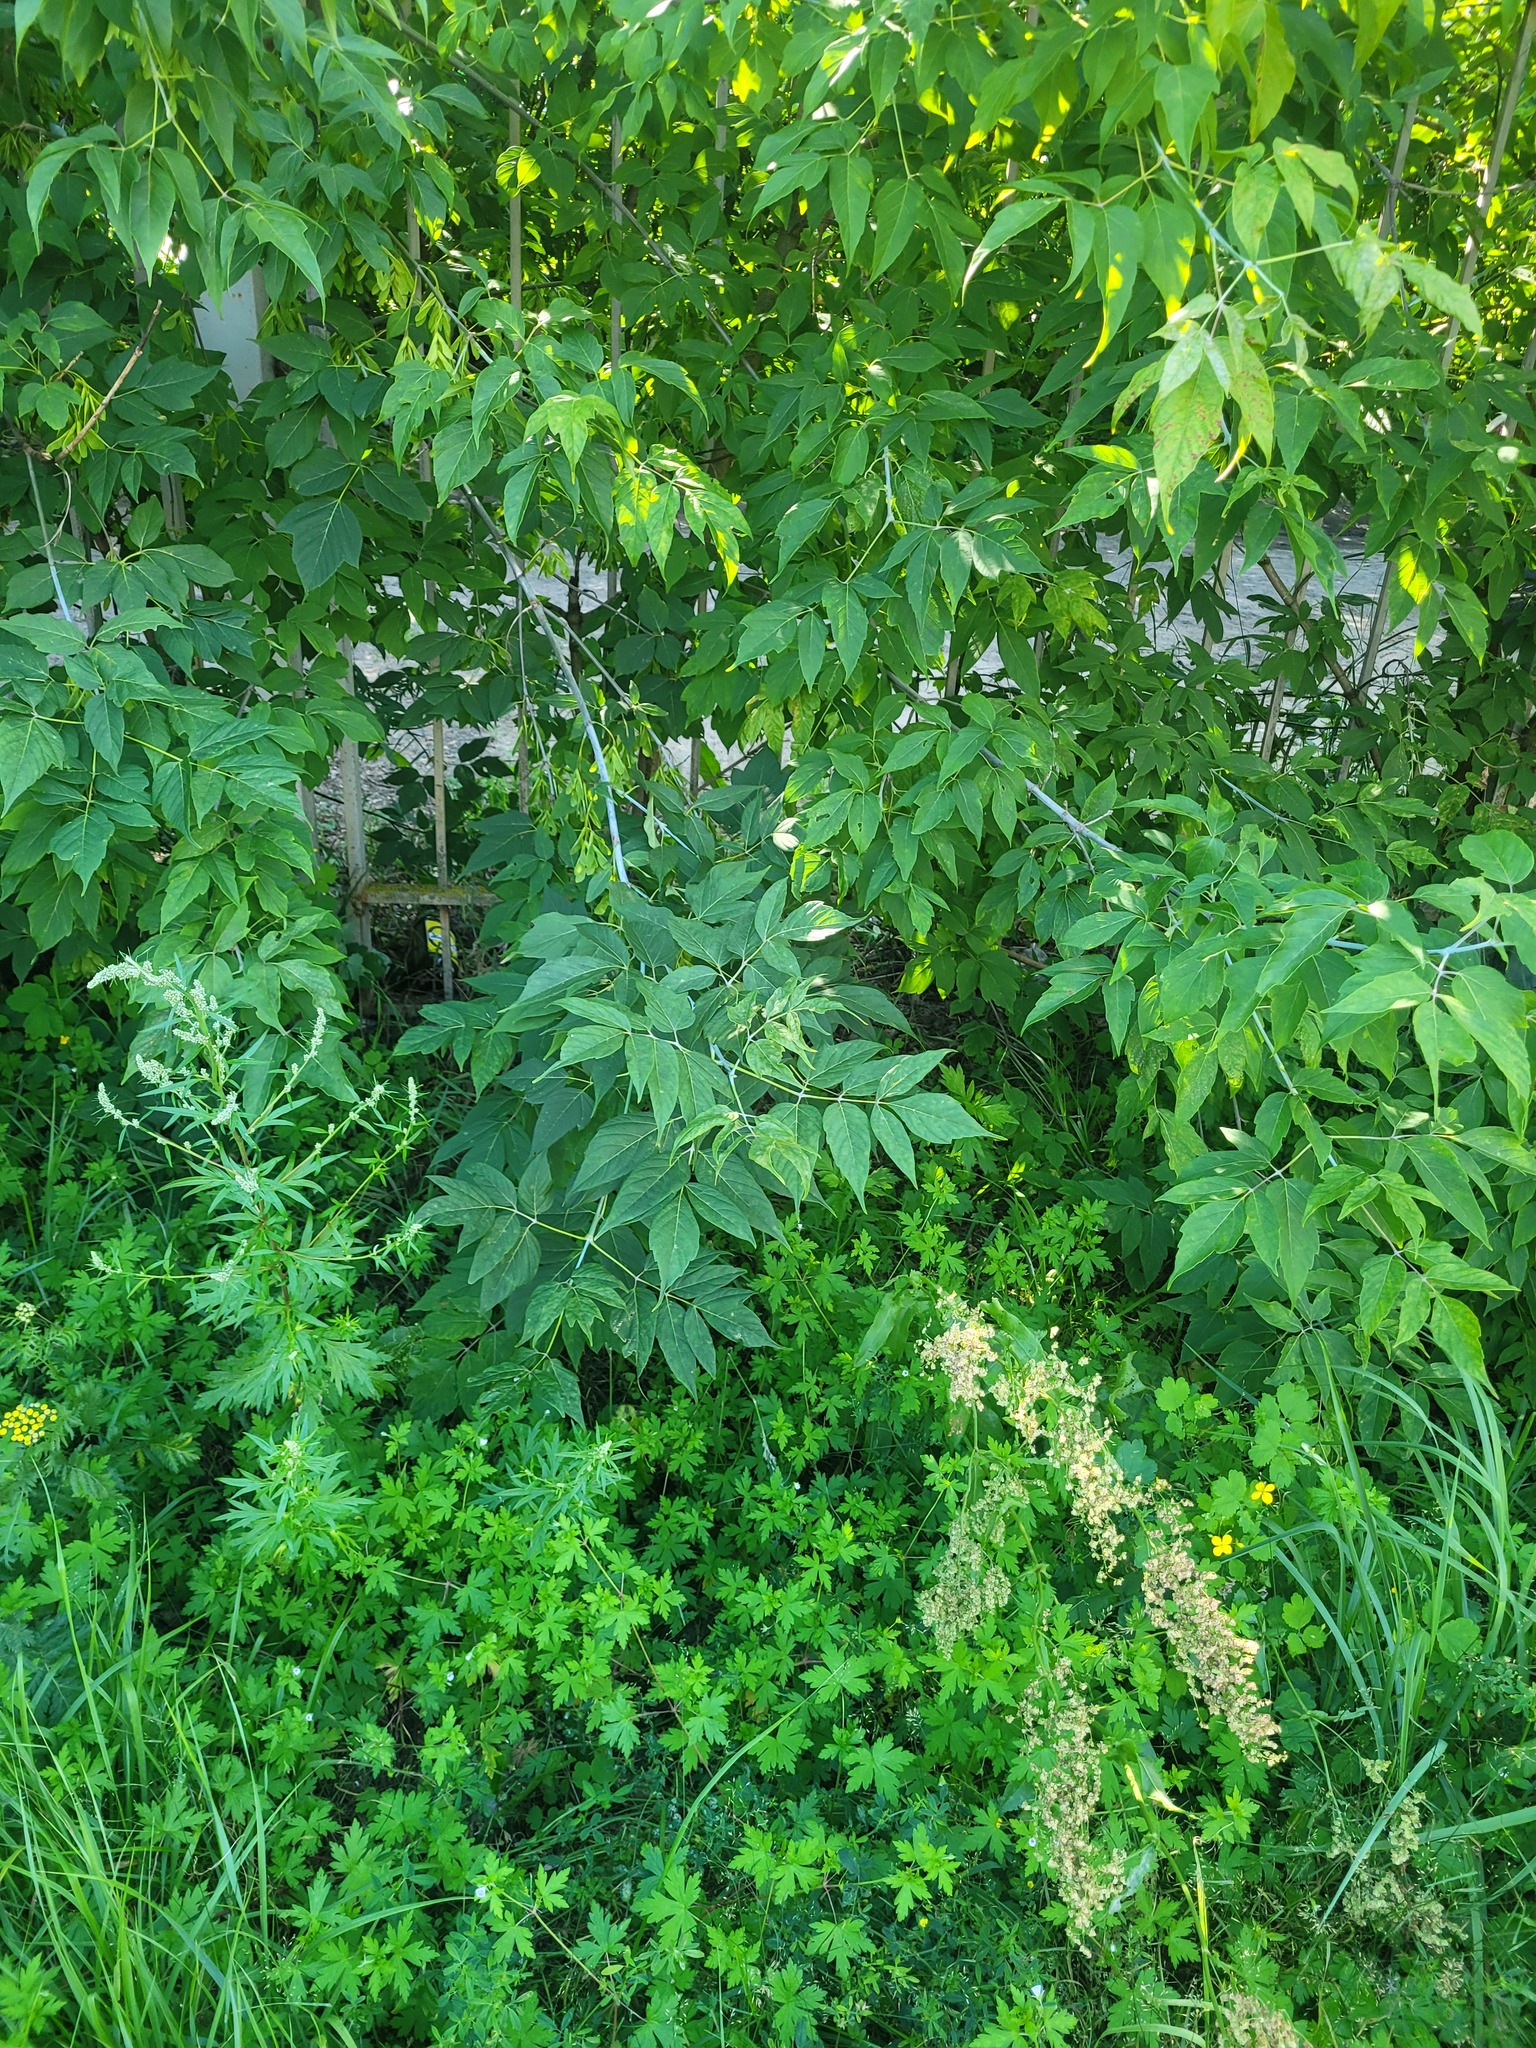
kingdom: Plantae
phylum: Tracheophyta
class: Magnoliopsida
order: Sapindales
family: Sapindaceae
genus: Acer
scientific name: Acer negundo
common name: Ashleaf maple
